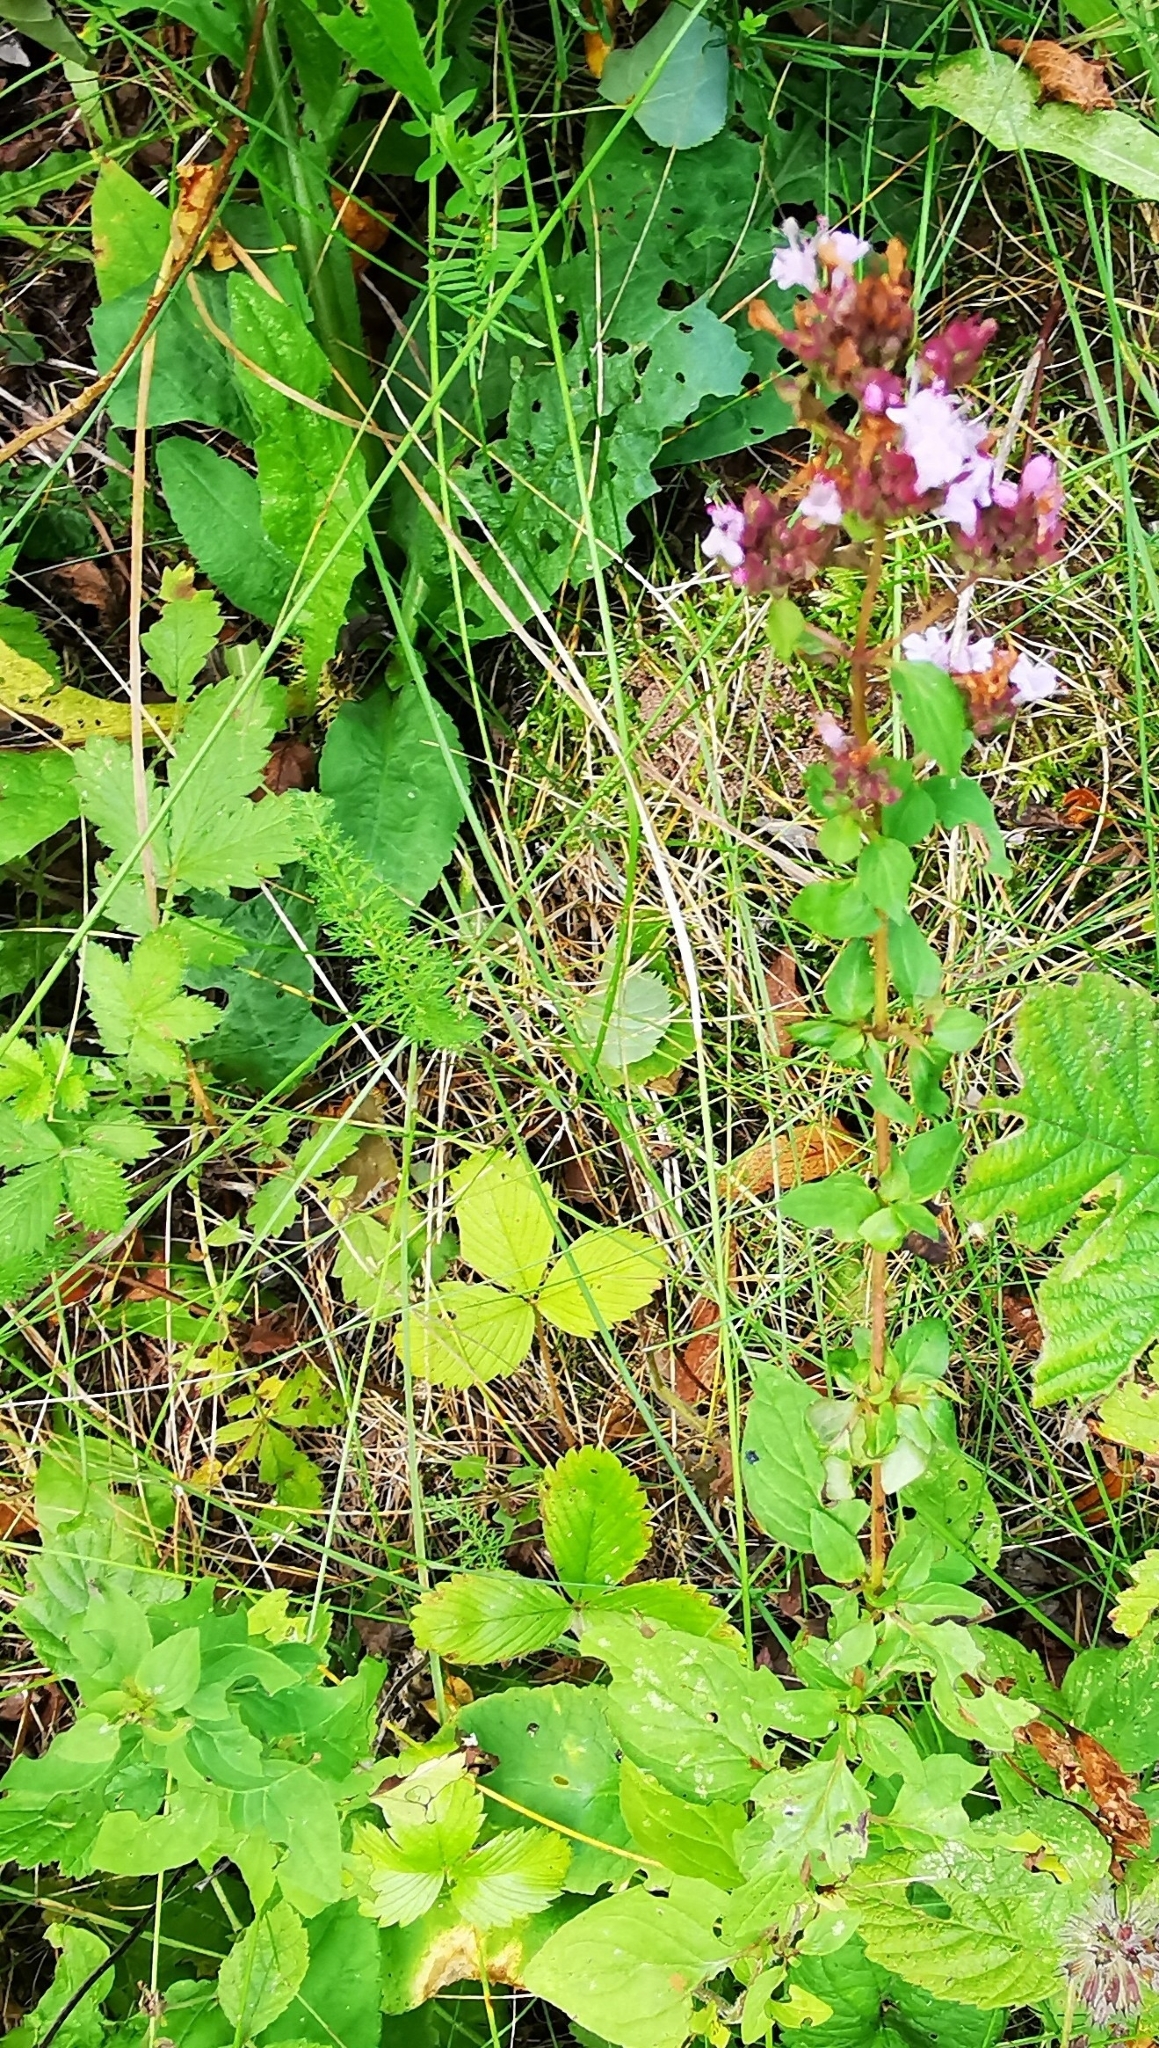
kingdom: Plantae
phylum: Tracheophyta
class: Magnoliopsida
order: Lamiales
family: Lamiaceae
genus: Origanum
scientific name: Origanum vulgare
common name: Wild marjoram
